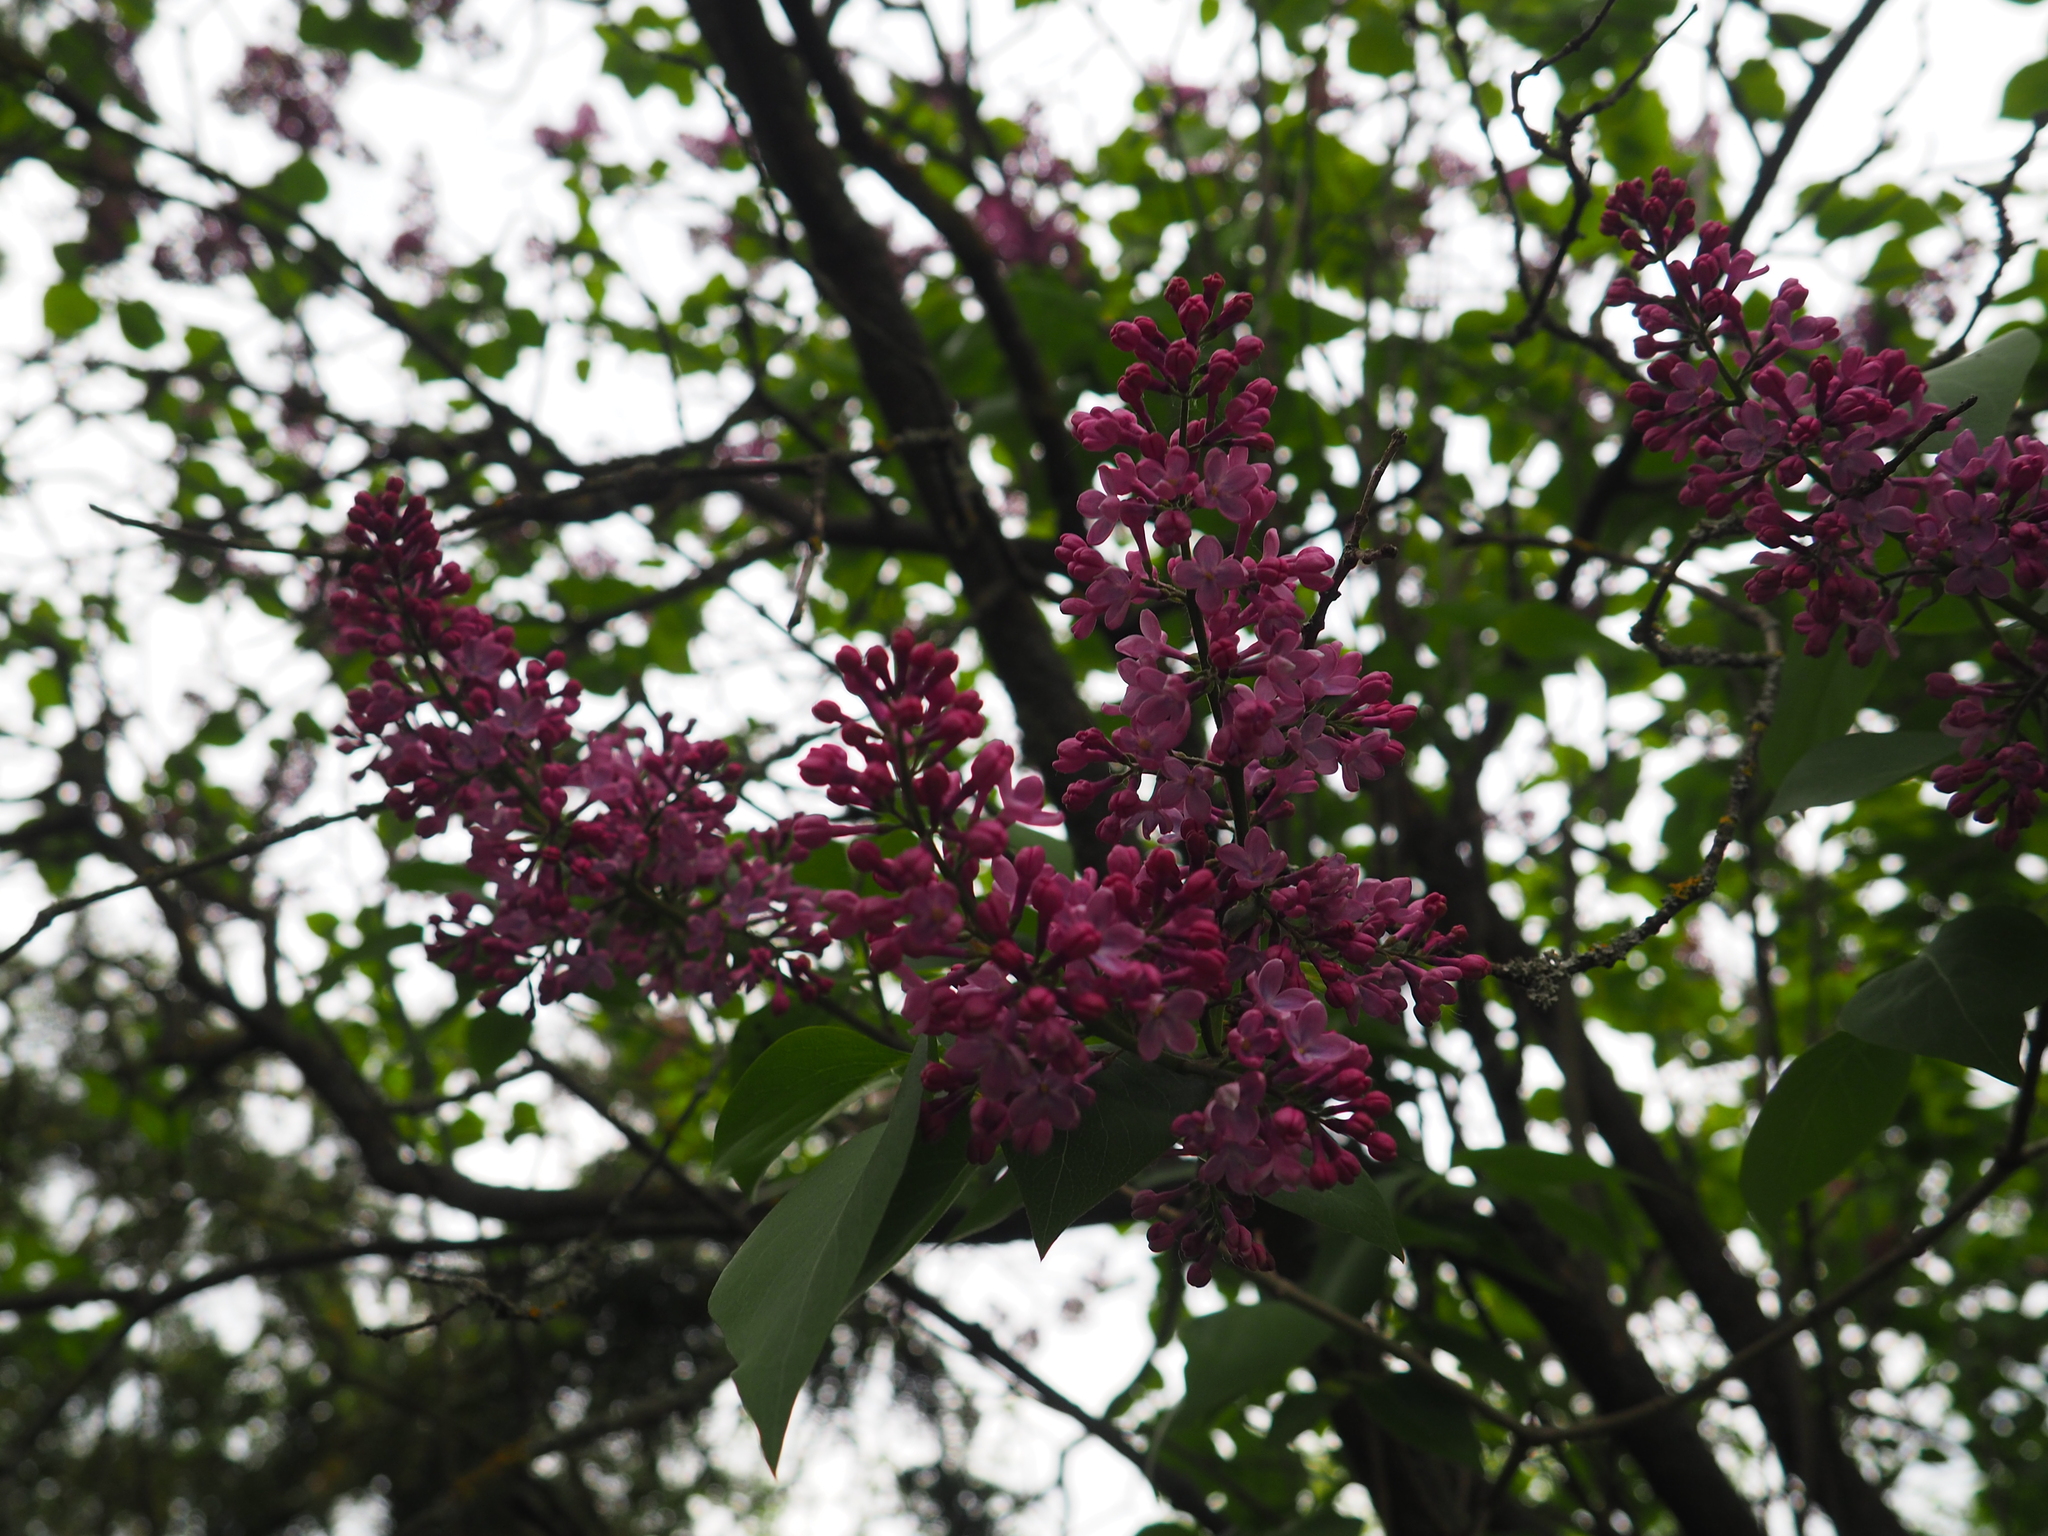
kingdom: Plantae
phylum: Tracheophyta
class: Magnoliopsida
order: Lamiales
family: Oleaceae
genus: Syringa
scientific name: Syringa vulgaris
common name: Common lilac
